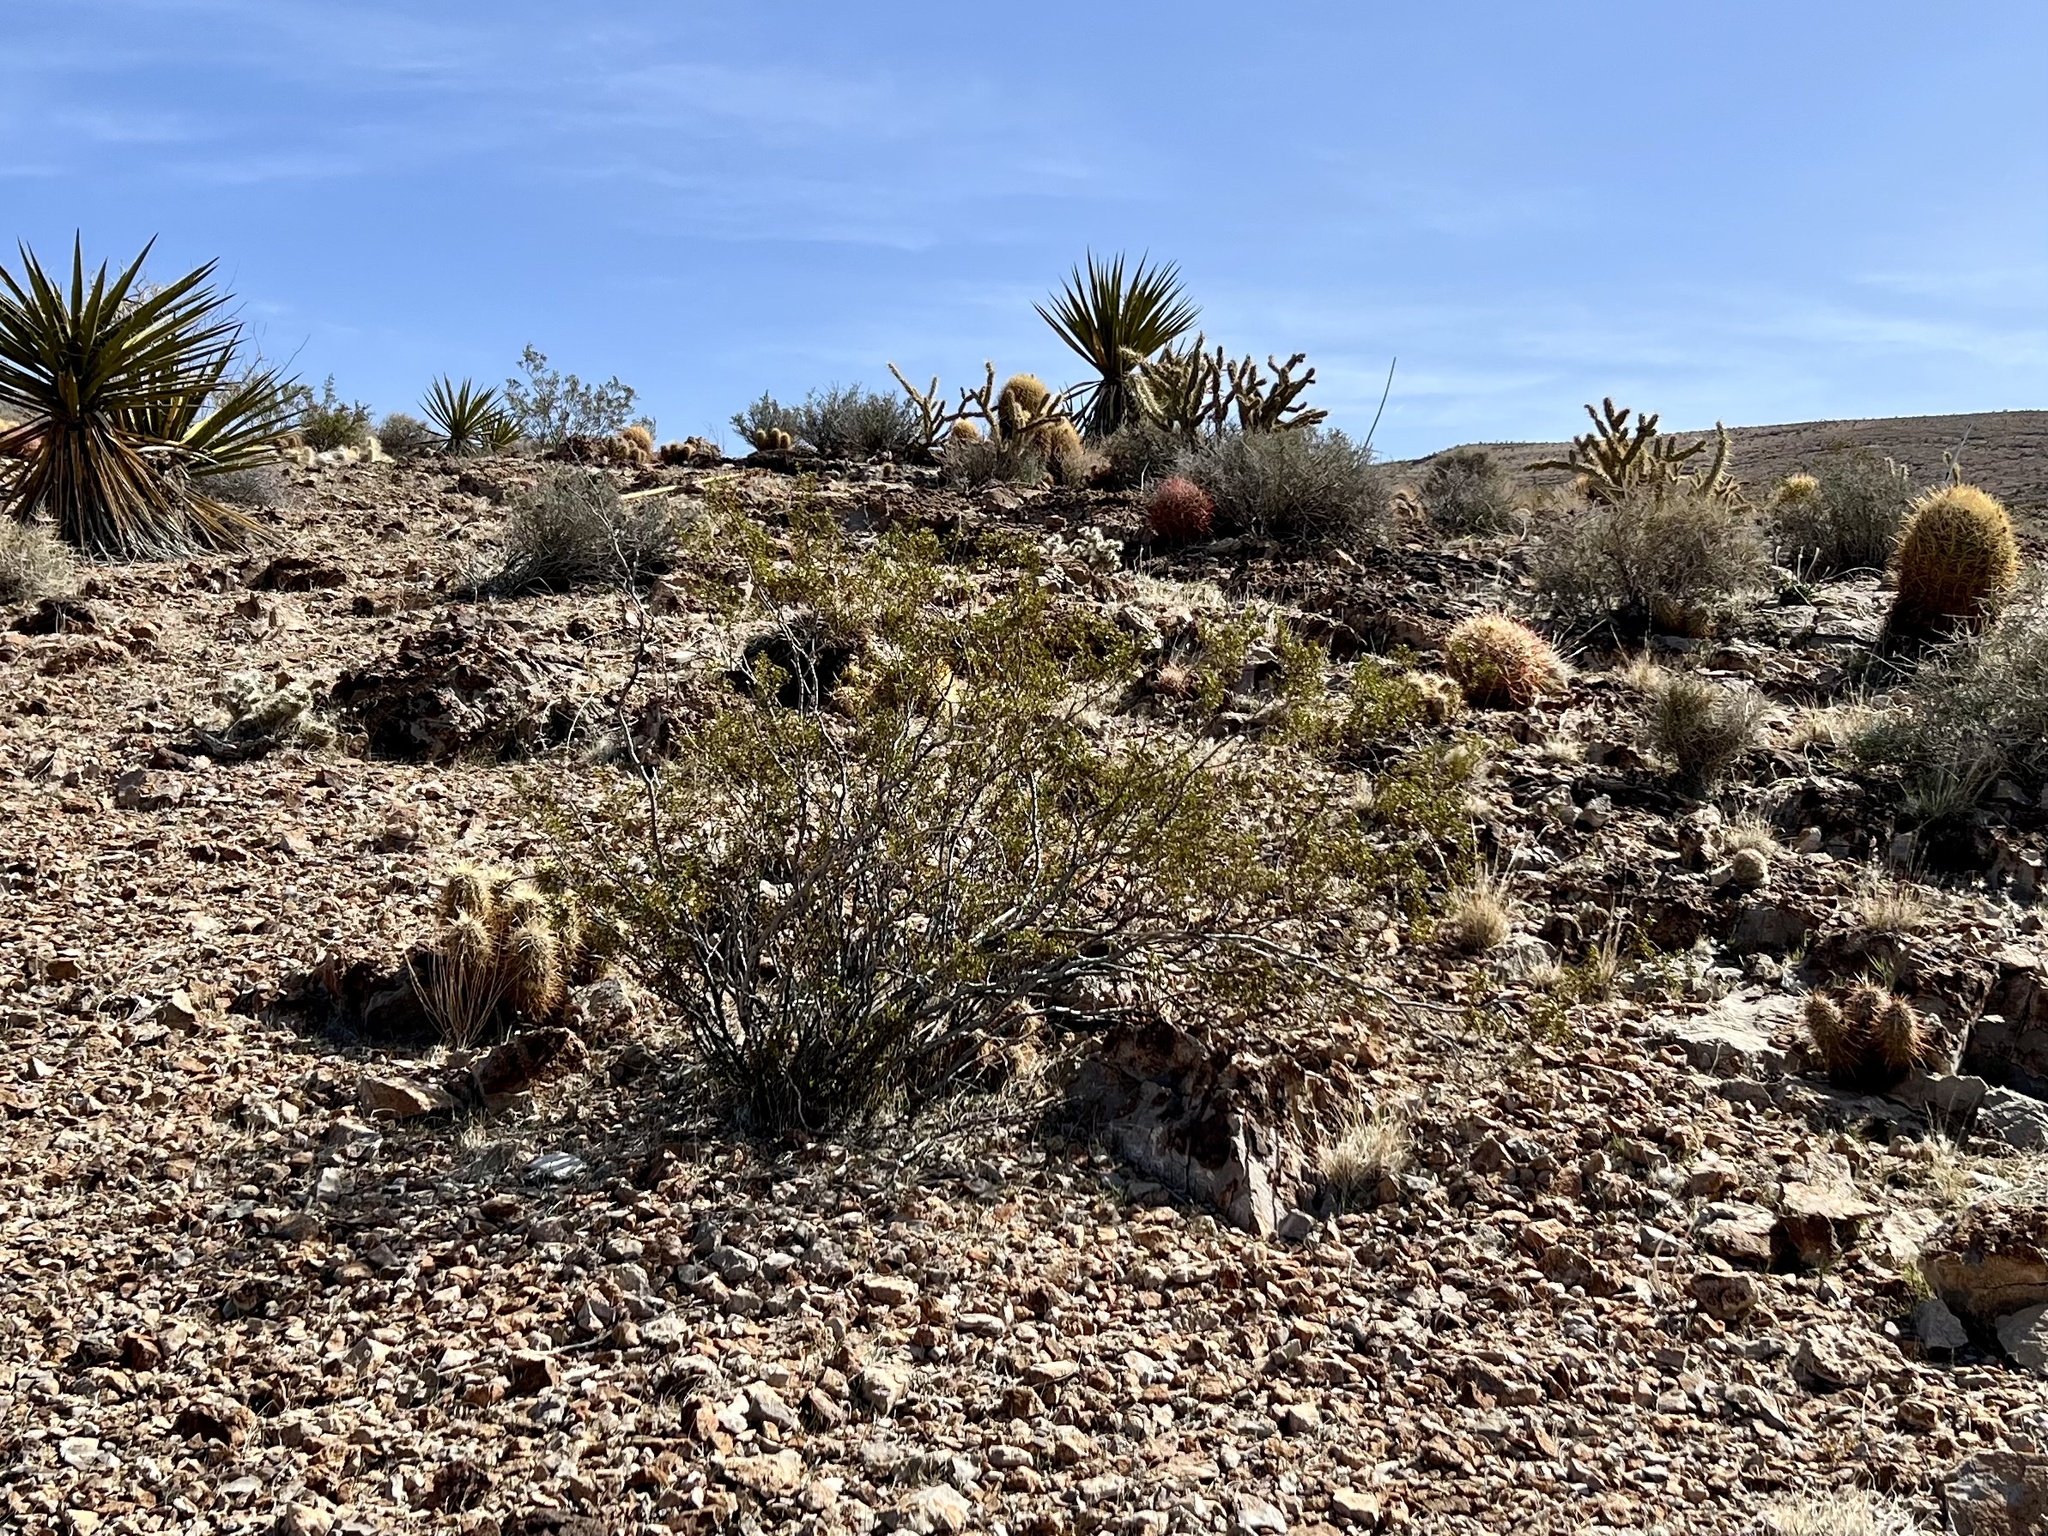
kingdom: Plantae
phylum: Tracheophyta
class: Magnoliopsida
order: Zygophyllales
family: Zygophyllaceae
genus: Larrea
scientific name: Larrea tridentata
